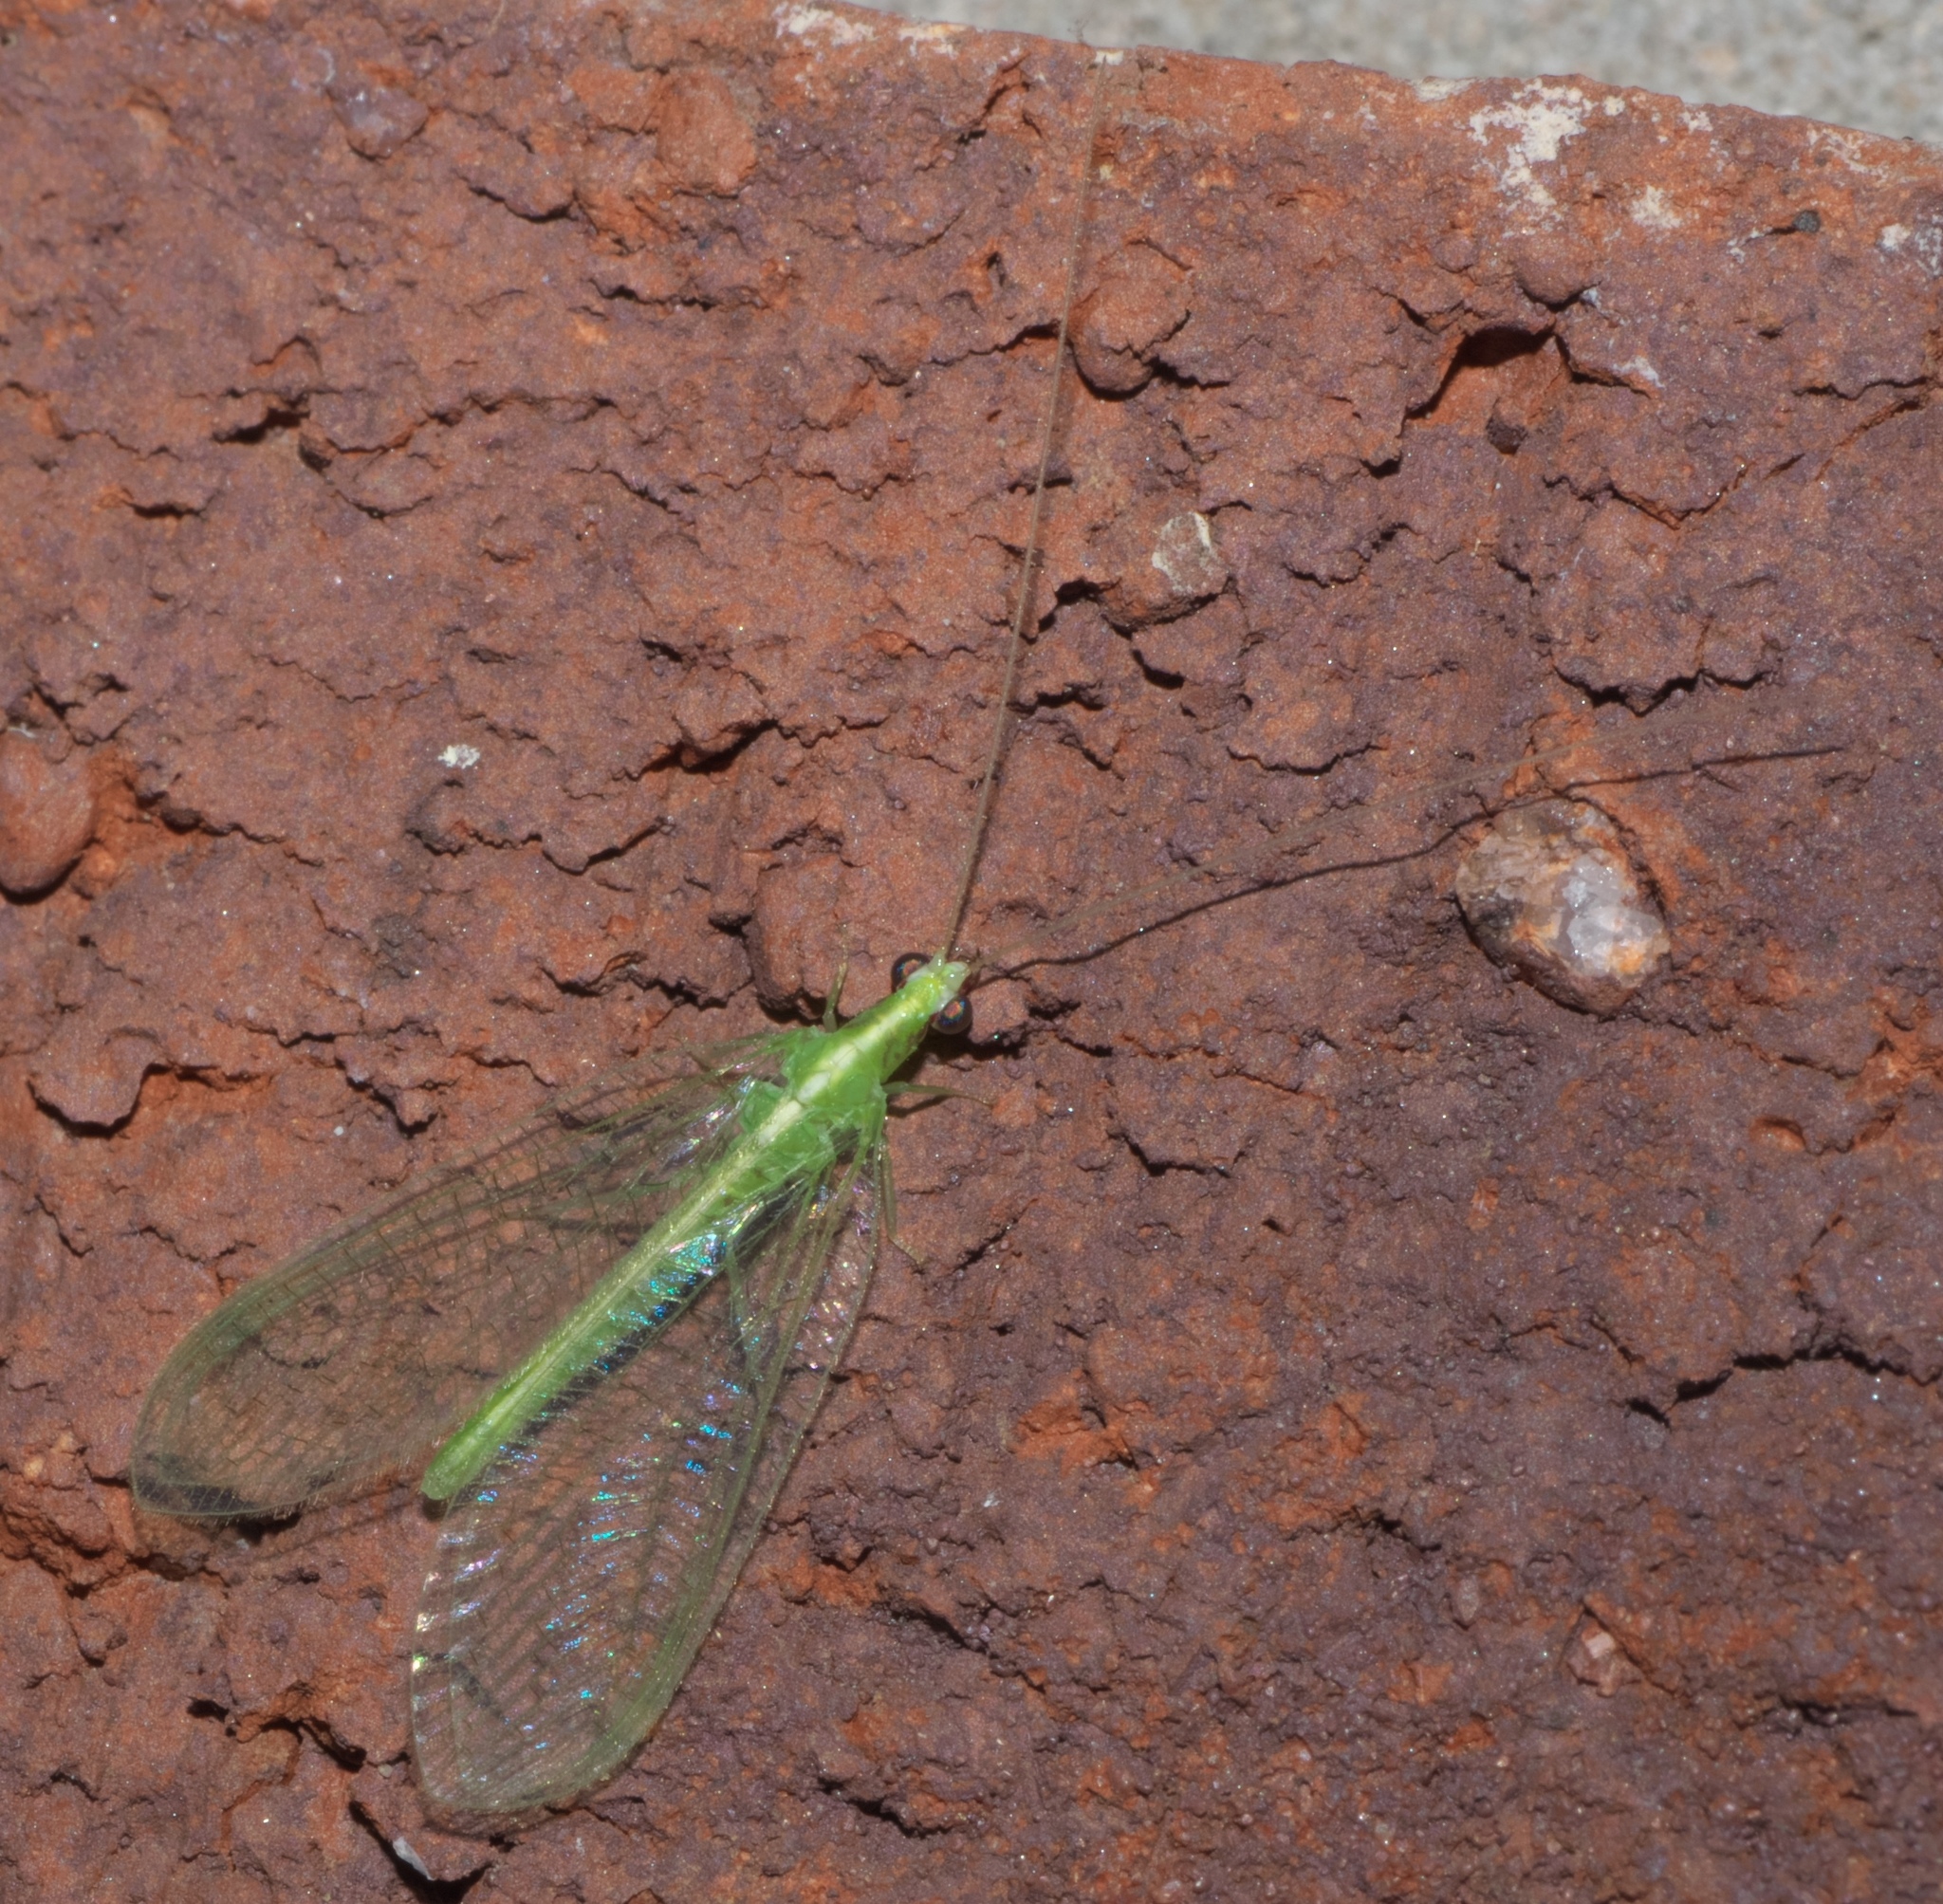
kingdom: Animalia
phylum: Arthropoda
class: Insecta
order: Neuroptera
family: Chrysopidae
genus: Chrysoperla
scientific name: Chrysoperla rufilabris
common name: Red-lipped green lacewing
